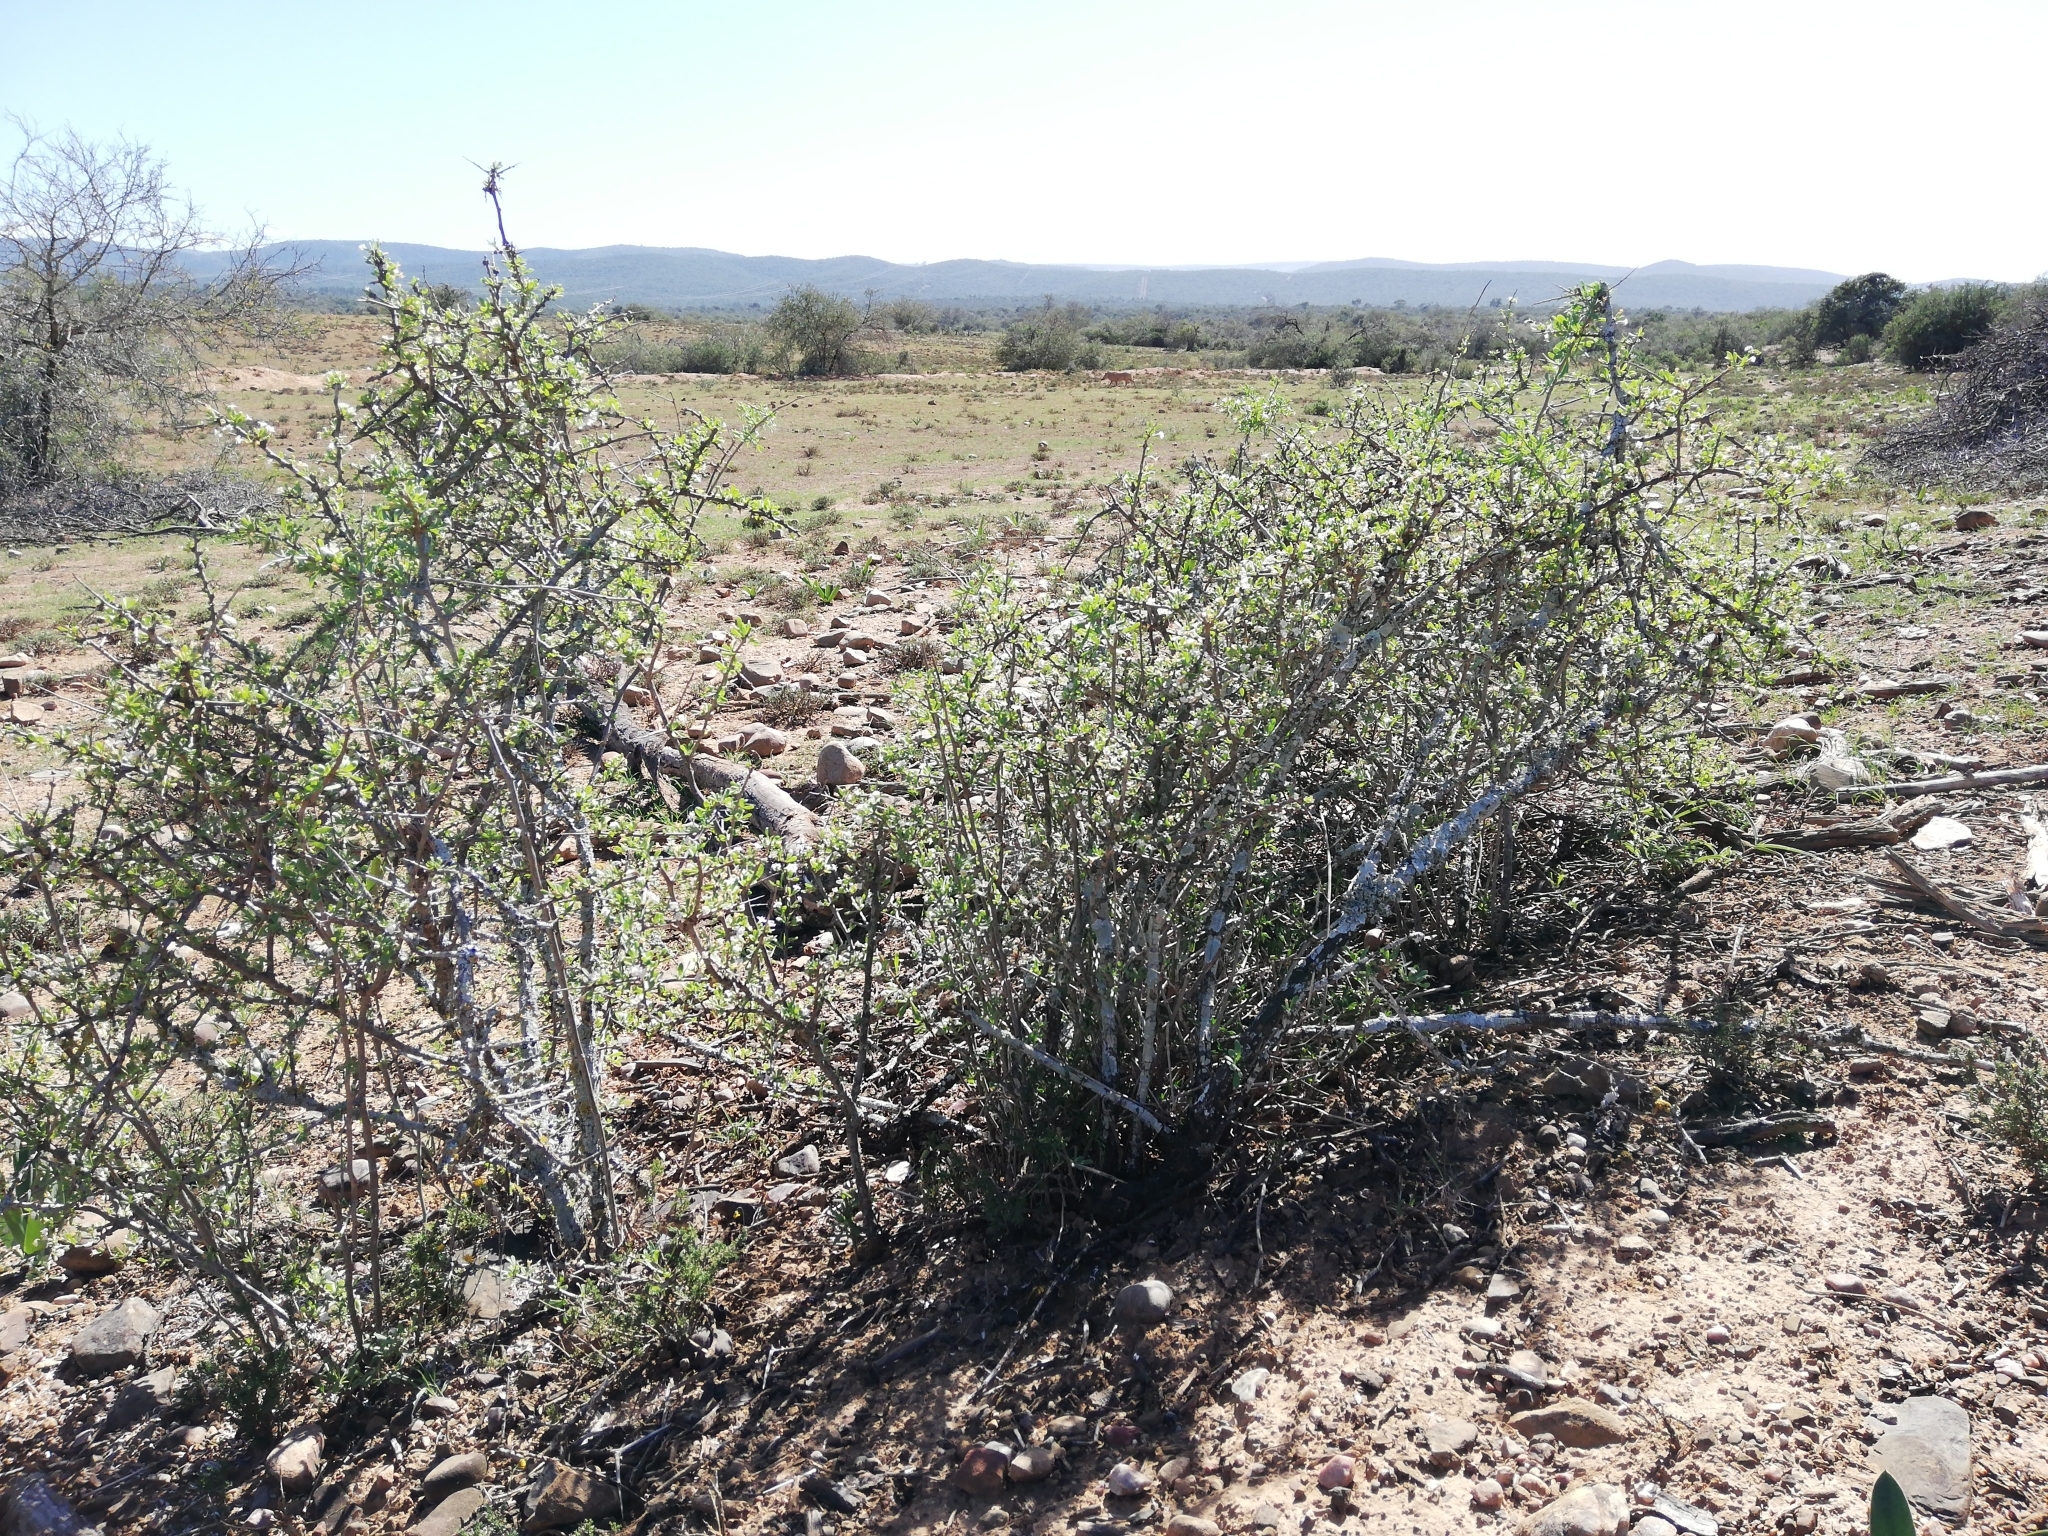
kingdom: Plantae
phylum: Tracheophyta
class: Magnoliopsida
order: Solanales
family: Solanaceae
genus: Lycium
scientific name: Lycium ferocissimum
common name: African boxthorn
